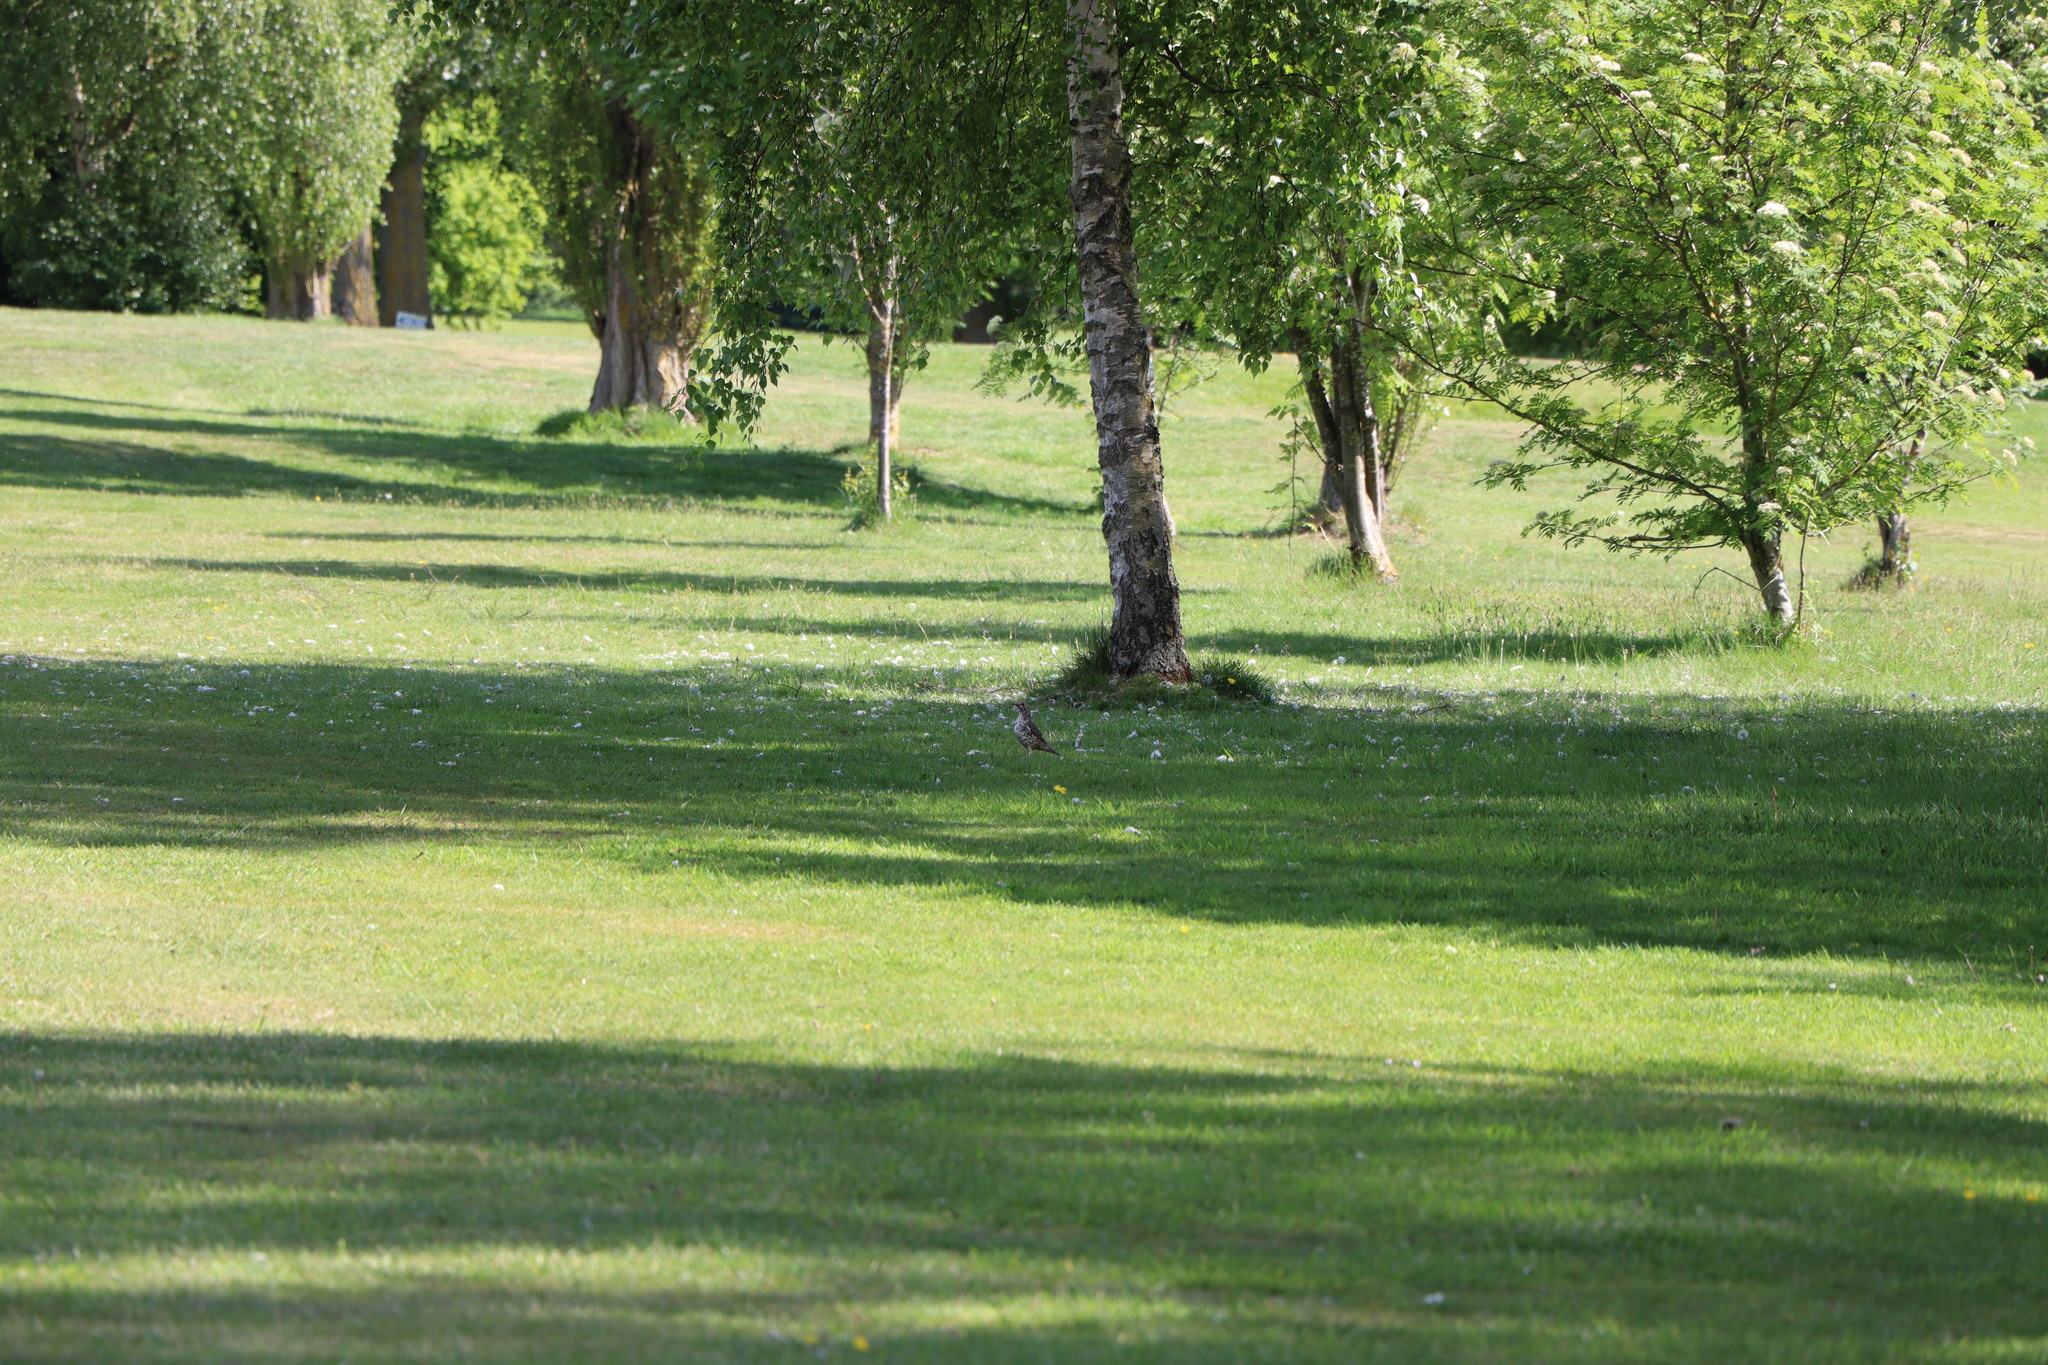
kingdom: Animalia
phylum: Chordata
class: Aves
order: Passeriformes
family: Turdidae
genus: Turdus
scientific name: Turdus viscivorus
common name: Mistle thrush
